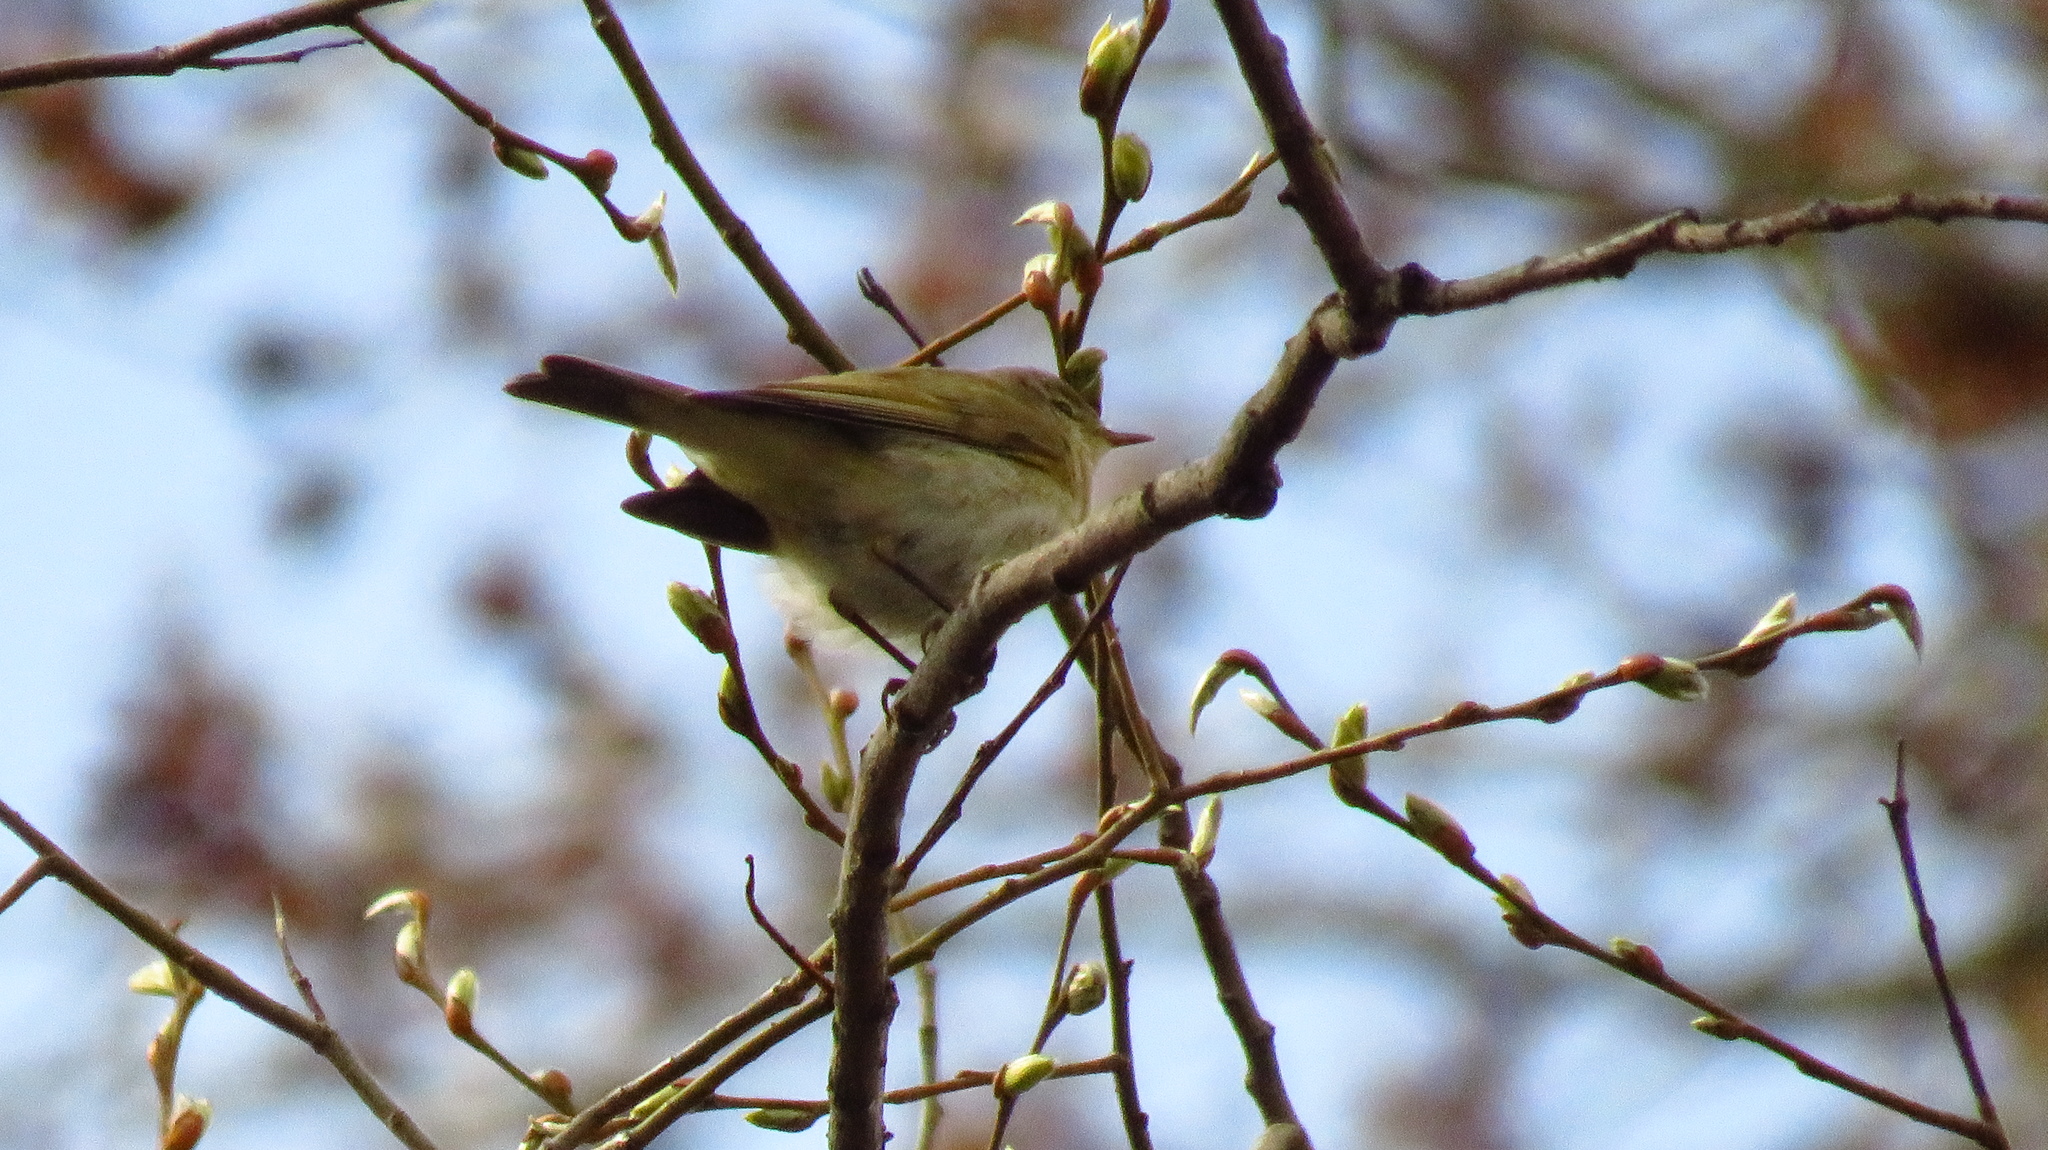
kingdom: Animalia
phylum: Chordata
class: Aves
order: Passeriformes
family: Phylloscopidae
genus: Phylloscopus
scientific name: Phylloscopus collybita
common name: Common chiffchaff
